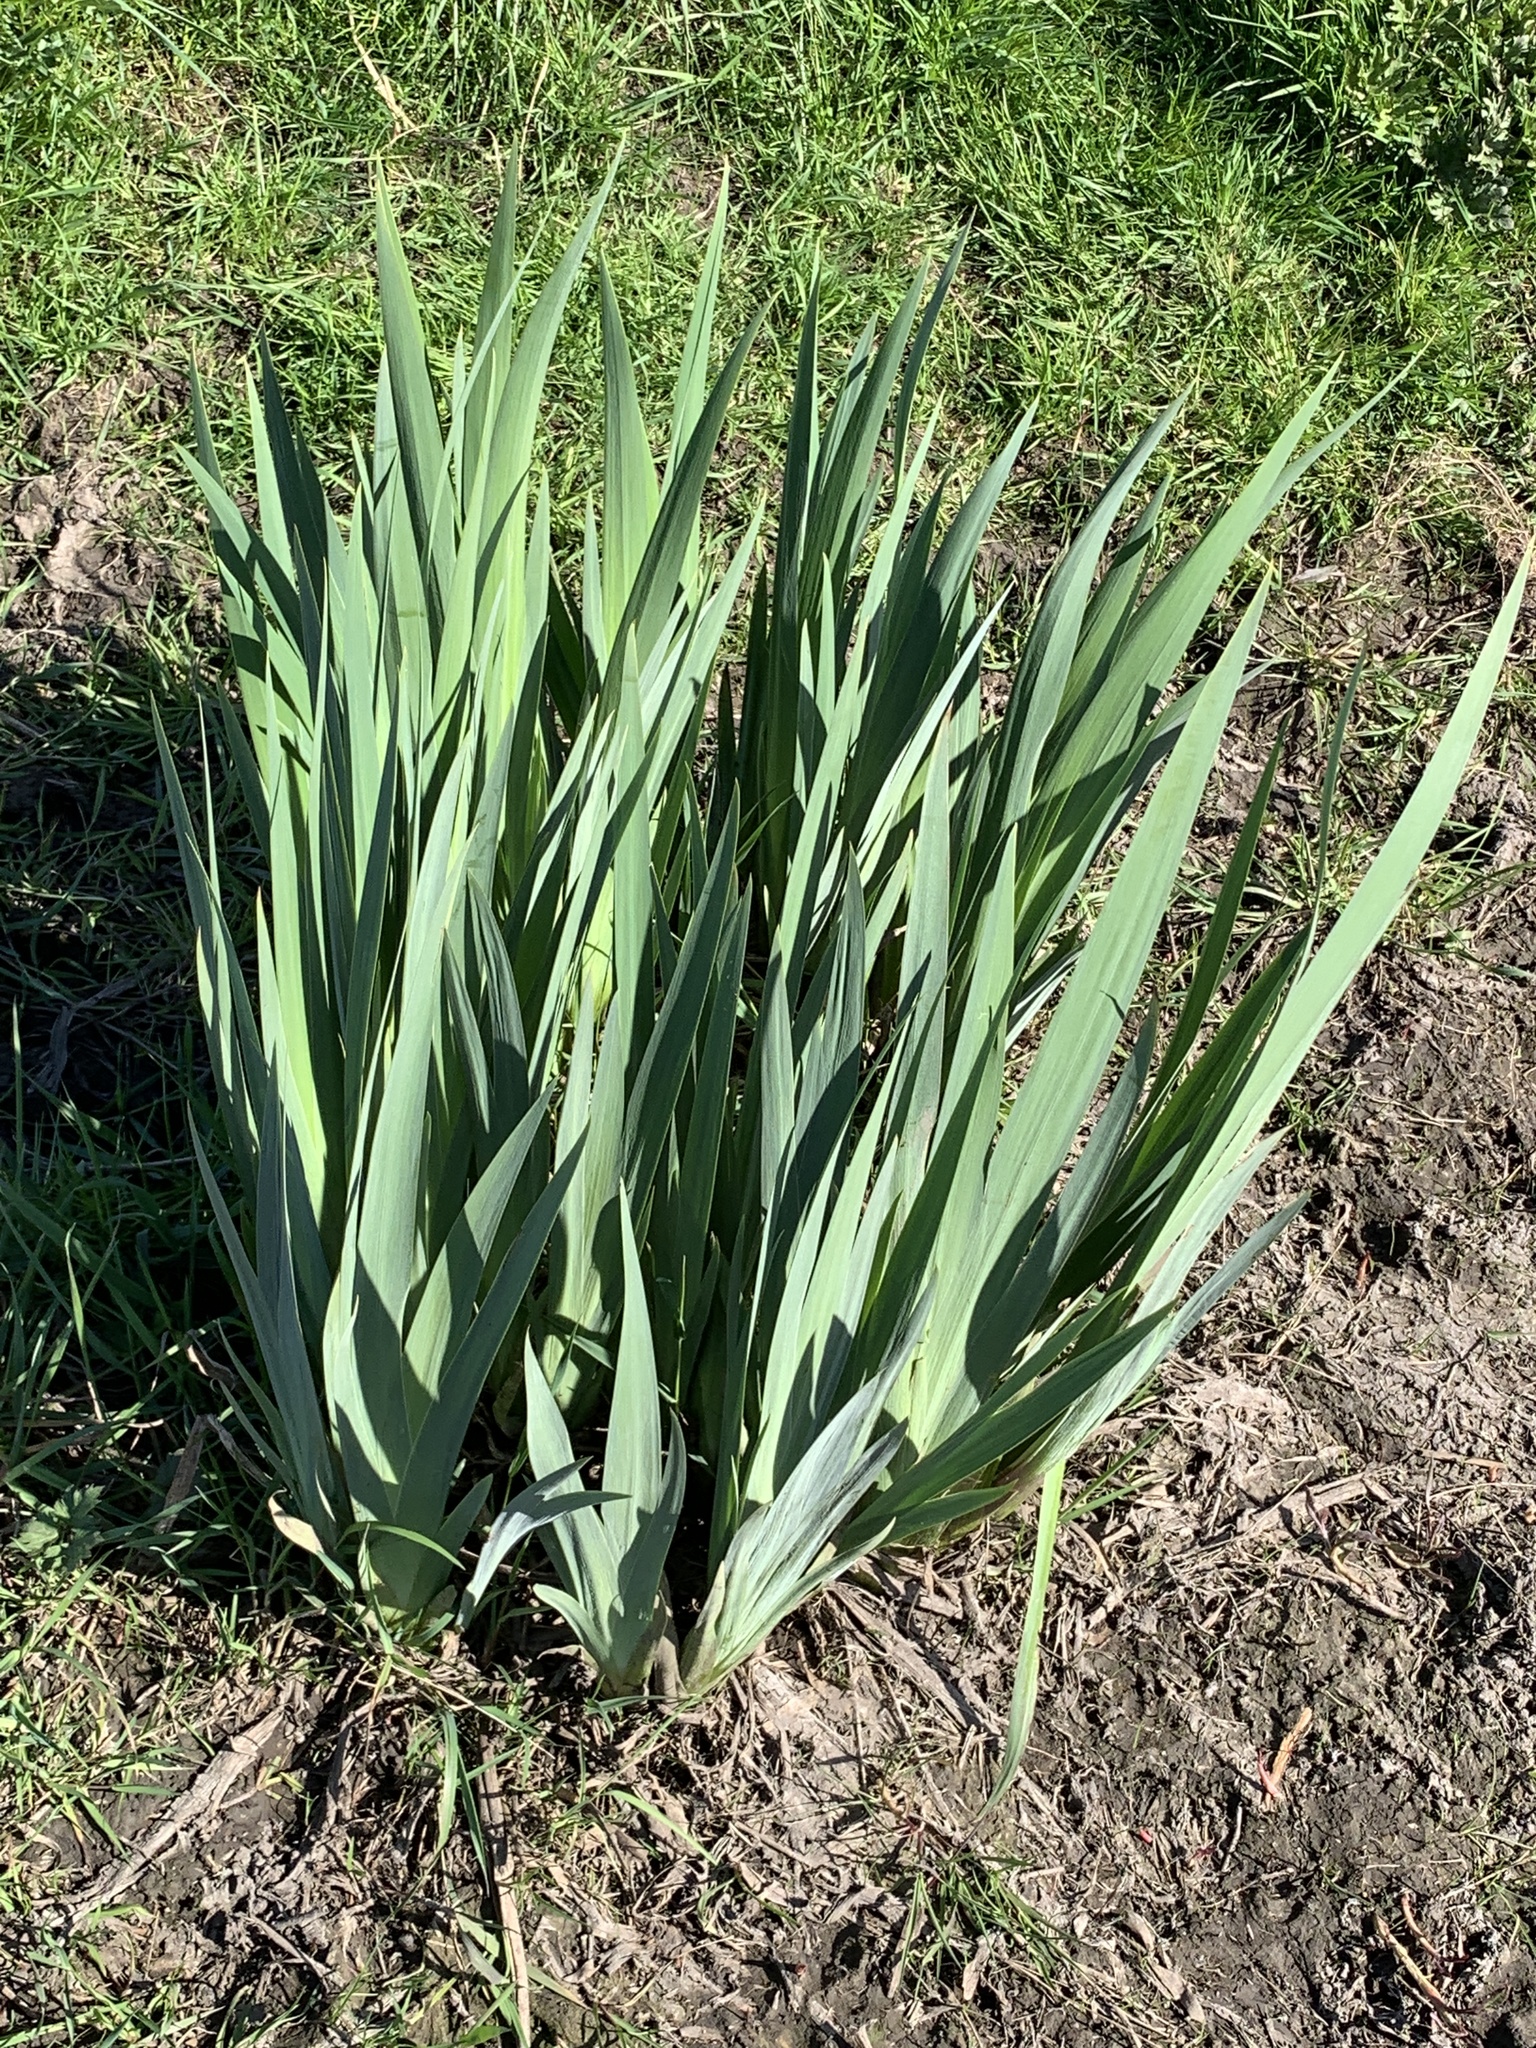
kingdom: Plantae
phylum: Tracheophyta
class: Liliopsida
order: Asparagales
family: Iridaceae
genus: Iris
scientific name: Iris pseudacorus
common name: Yellow flag
